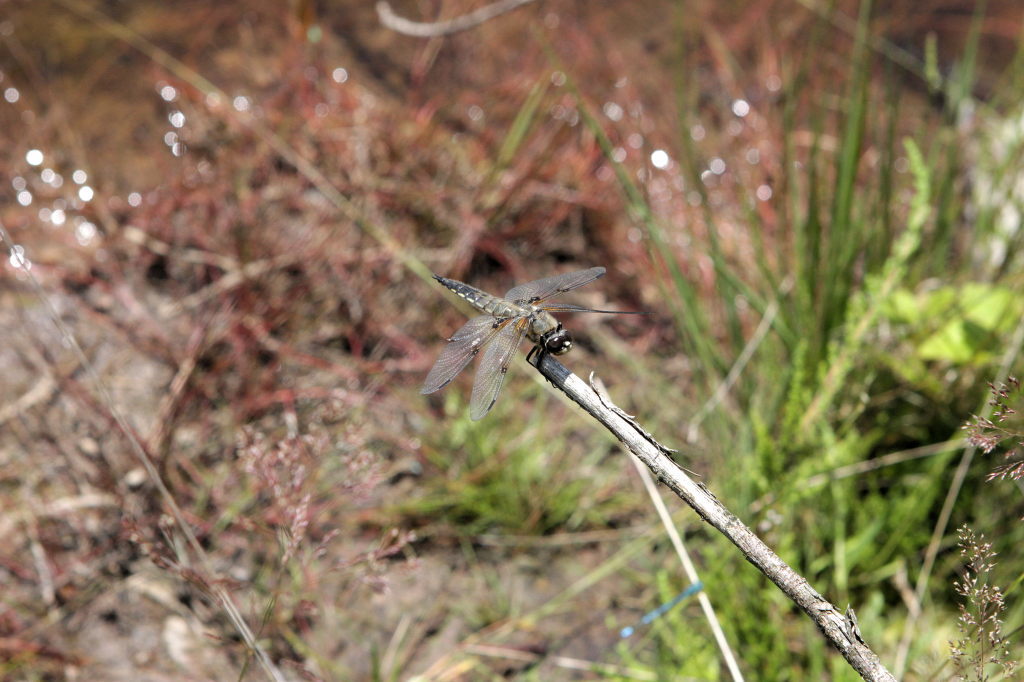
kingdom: Animalia
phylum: Arthropoda
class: Insecta
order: Odonata
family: Libellulidae
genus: Libellula
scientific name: Libellula quadrimaculata
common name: Four-spotted chaser
